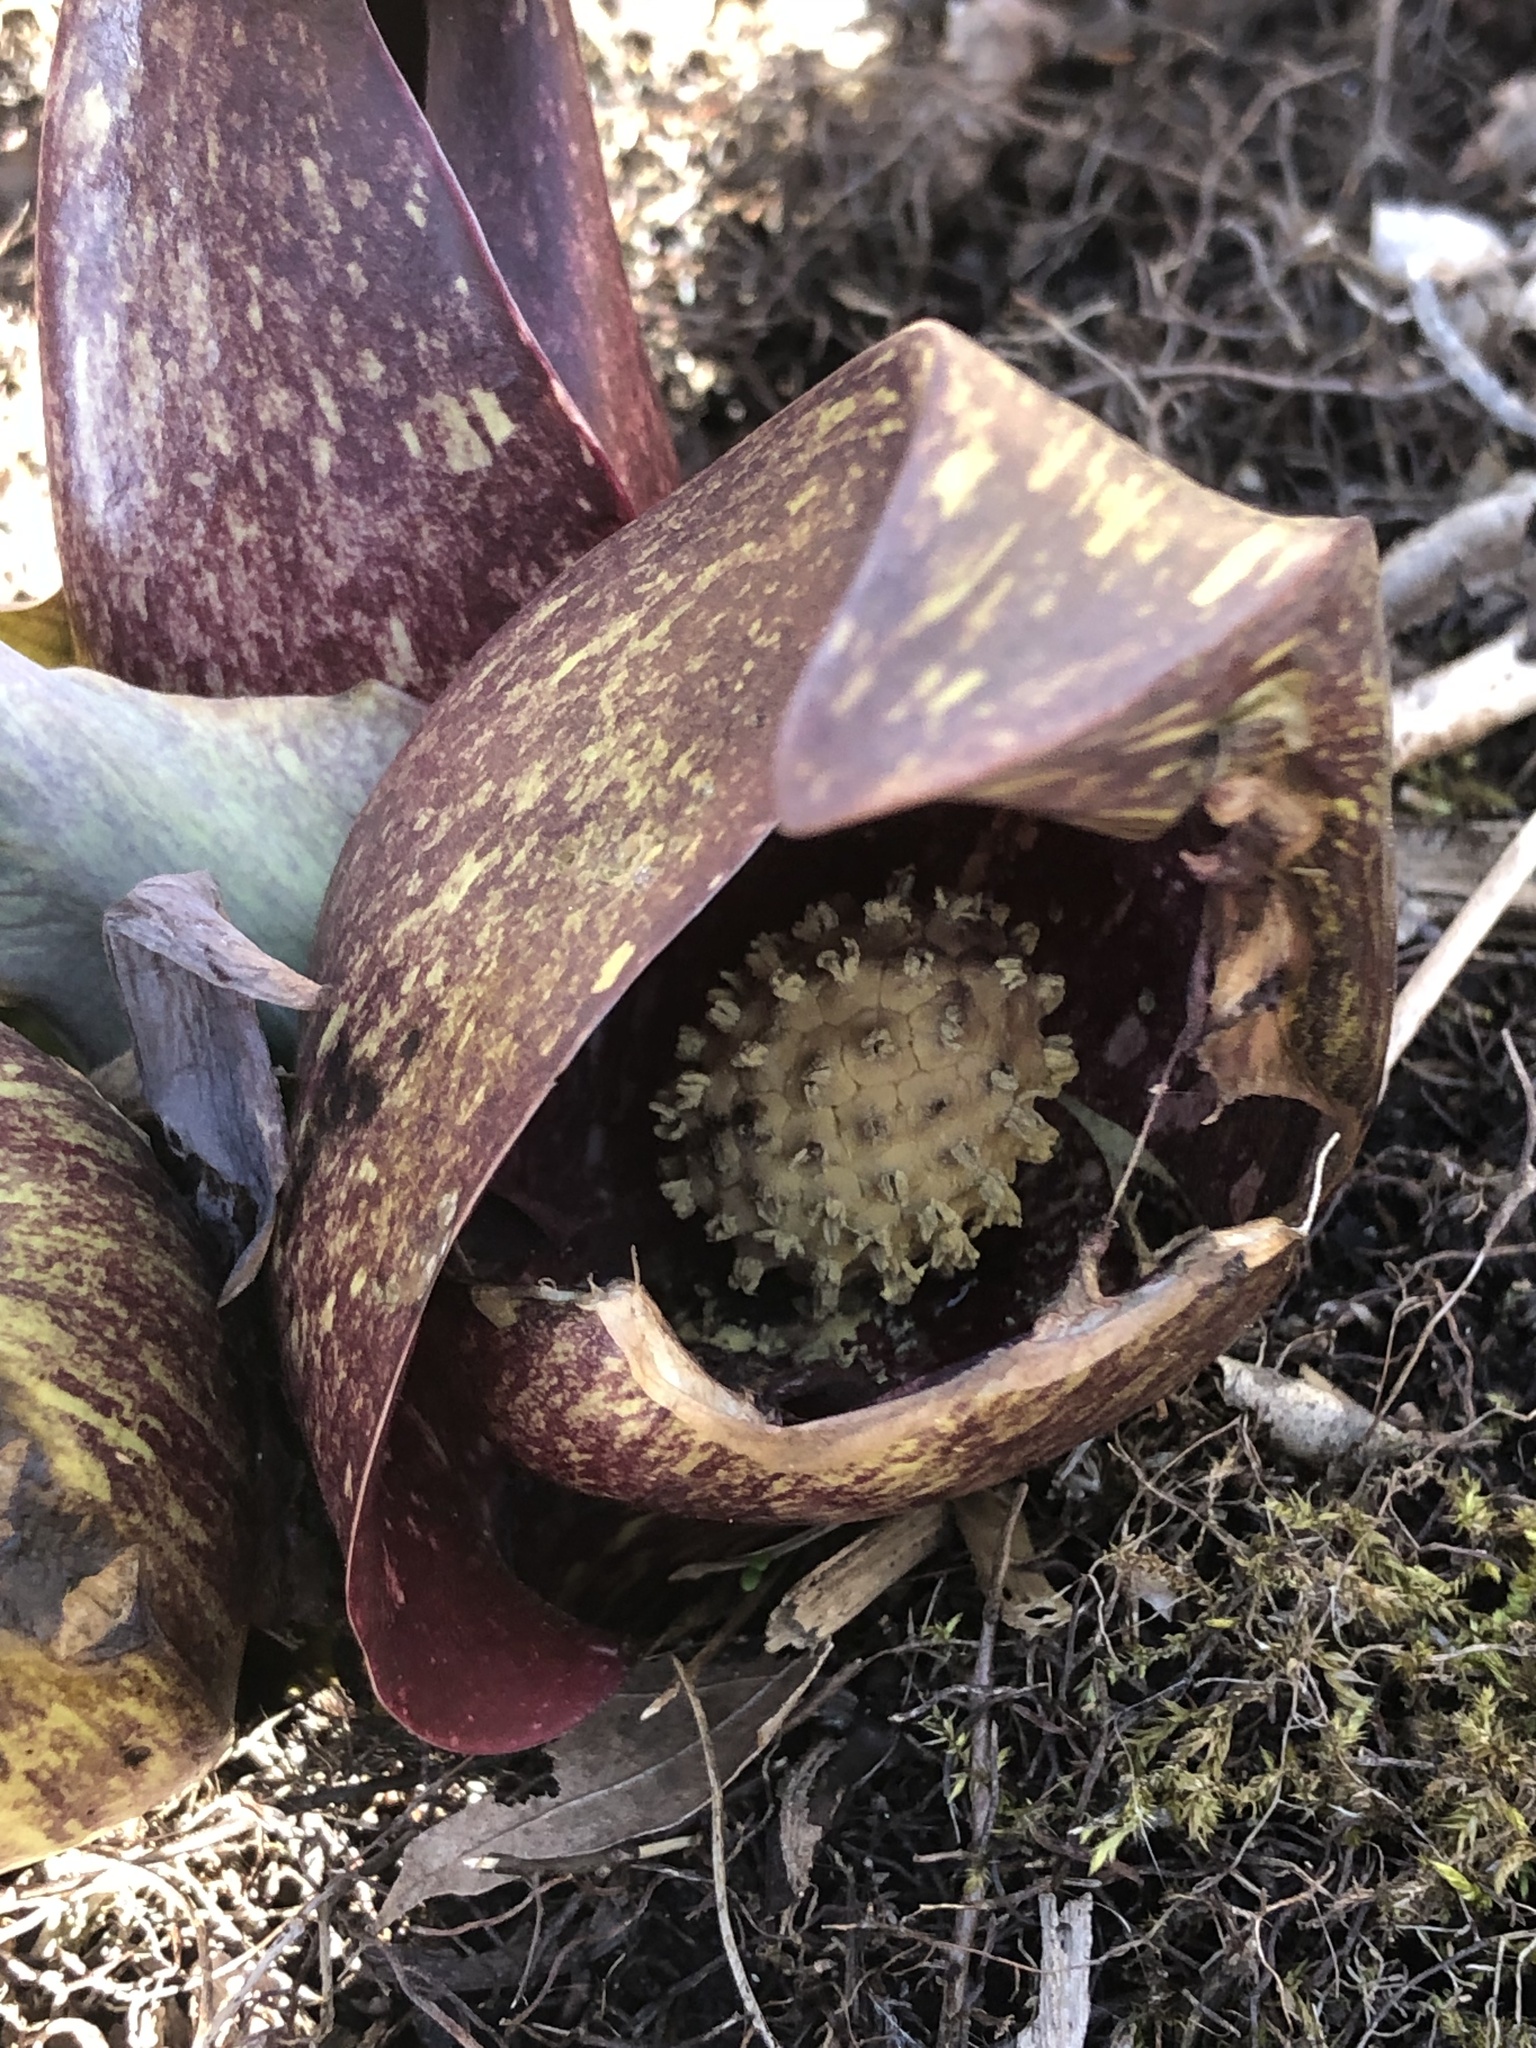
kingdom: Plantae
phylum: Tracheophyta
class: Liliopsida
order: Alismatales
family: Araceae
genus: Symplocarpus
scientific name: Symplocarpus foetidus
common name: Eastern skunk cabbage
